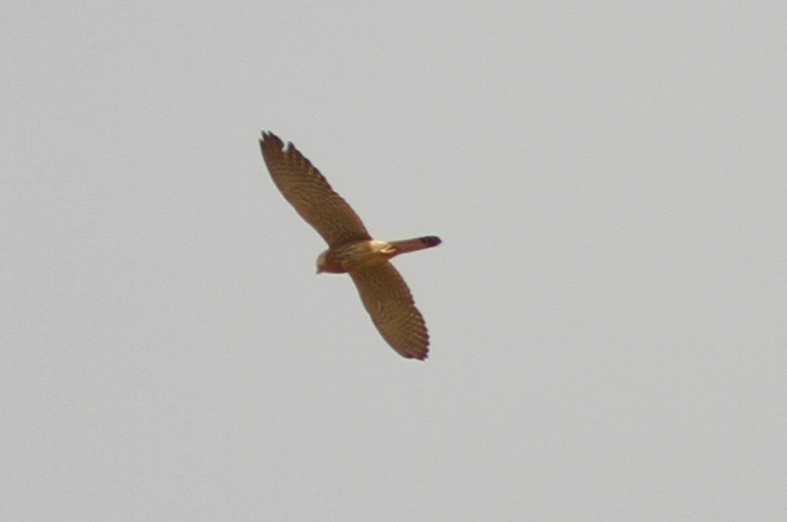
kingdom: Animalia
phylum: Chordata
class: Aves
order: Falconiformes
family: Falconidae
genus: Falco
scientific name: Falco tinnunculus
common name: Common kestrel
